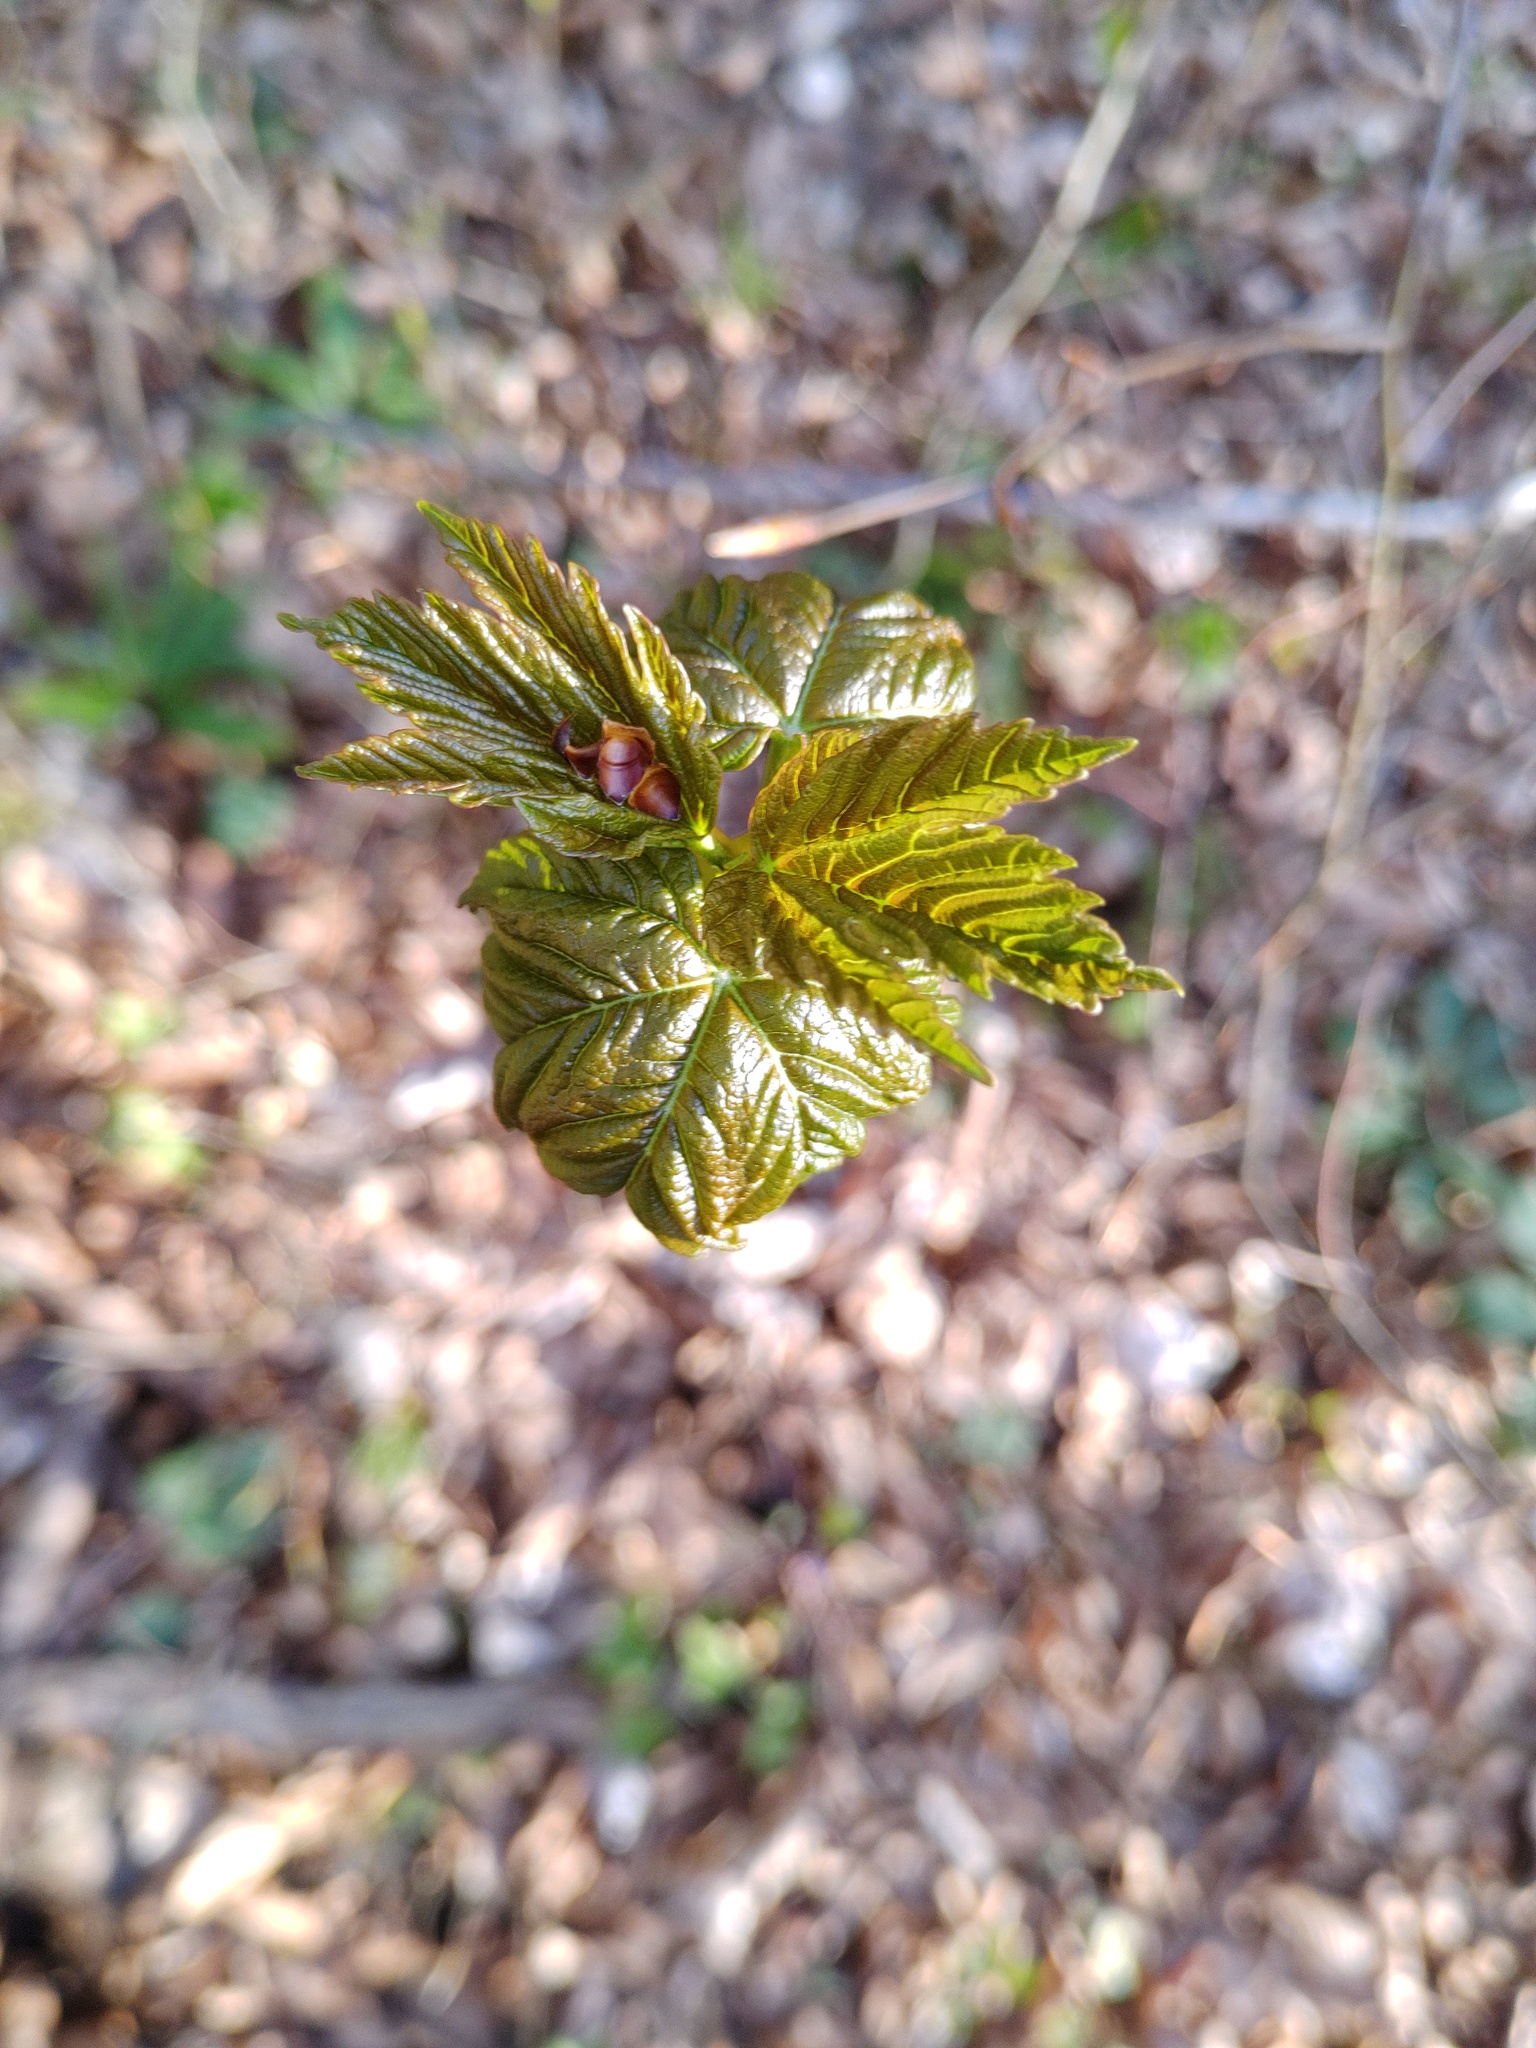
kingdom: Plantae
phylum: Tracheophyta
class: Magnoliopsida
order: Sapindales
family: Sapindaceae
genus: Acer
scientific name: Acer pseudoplatanus
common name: Sycamore
